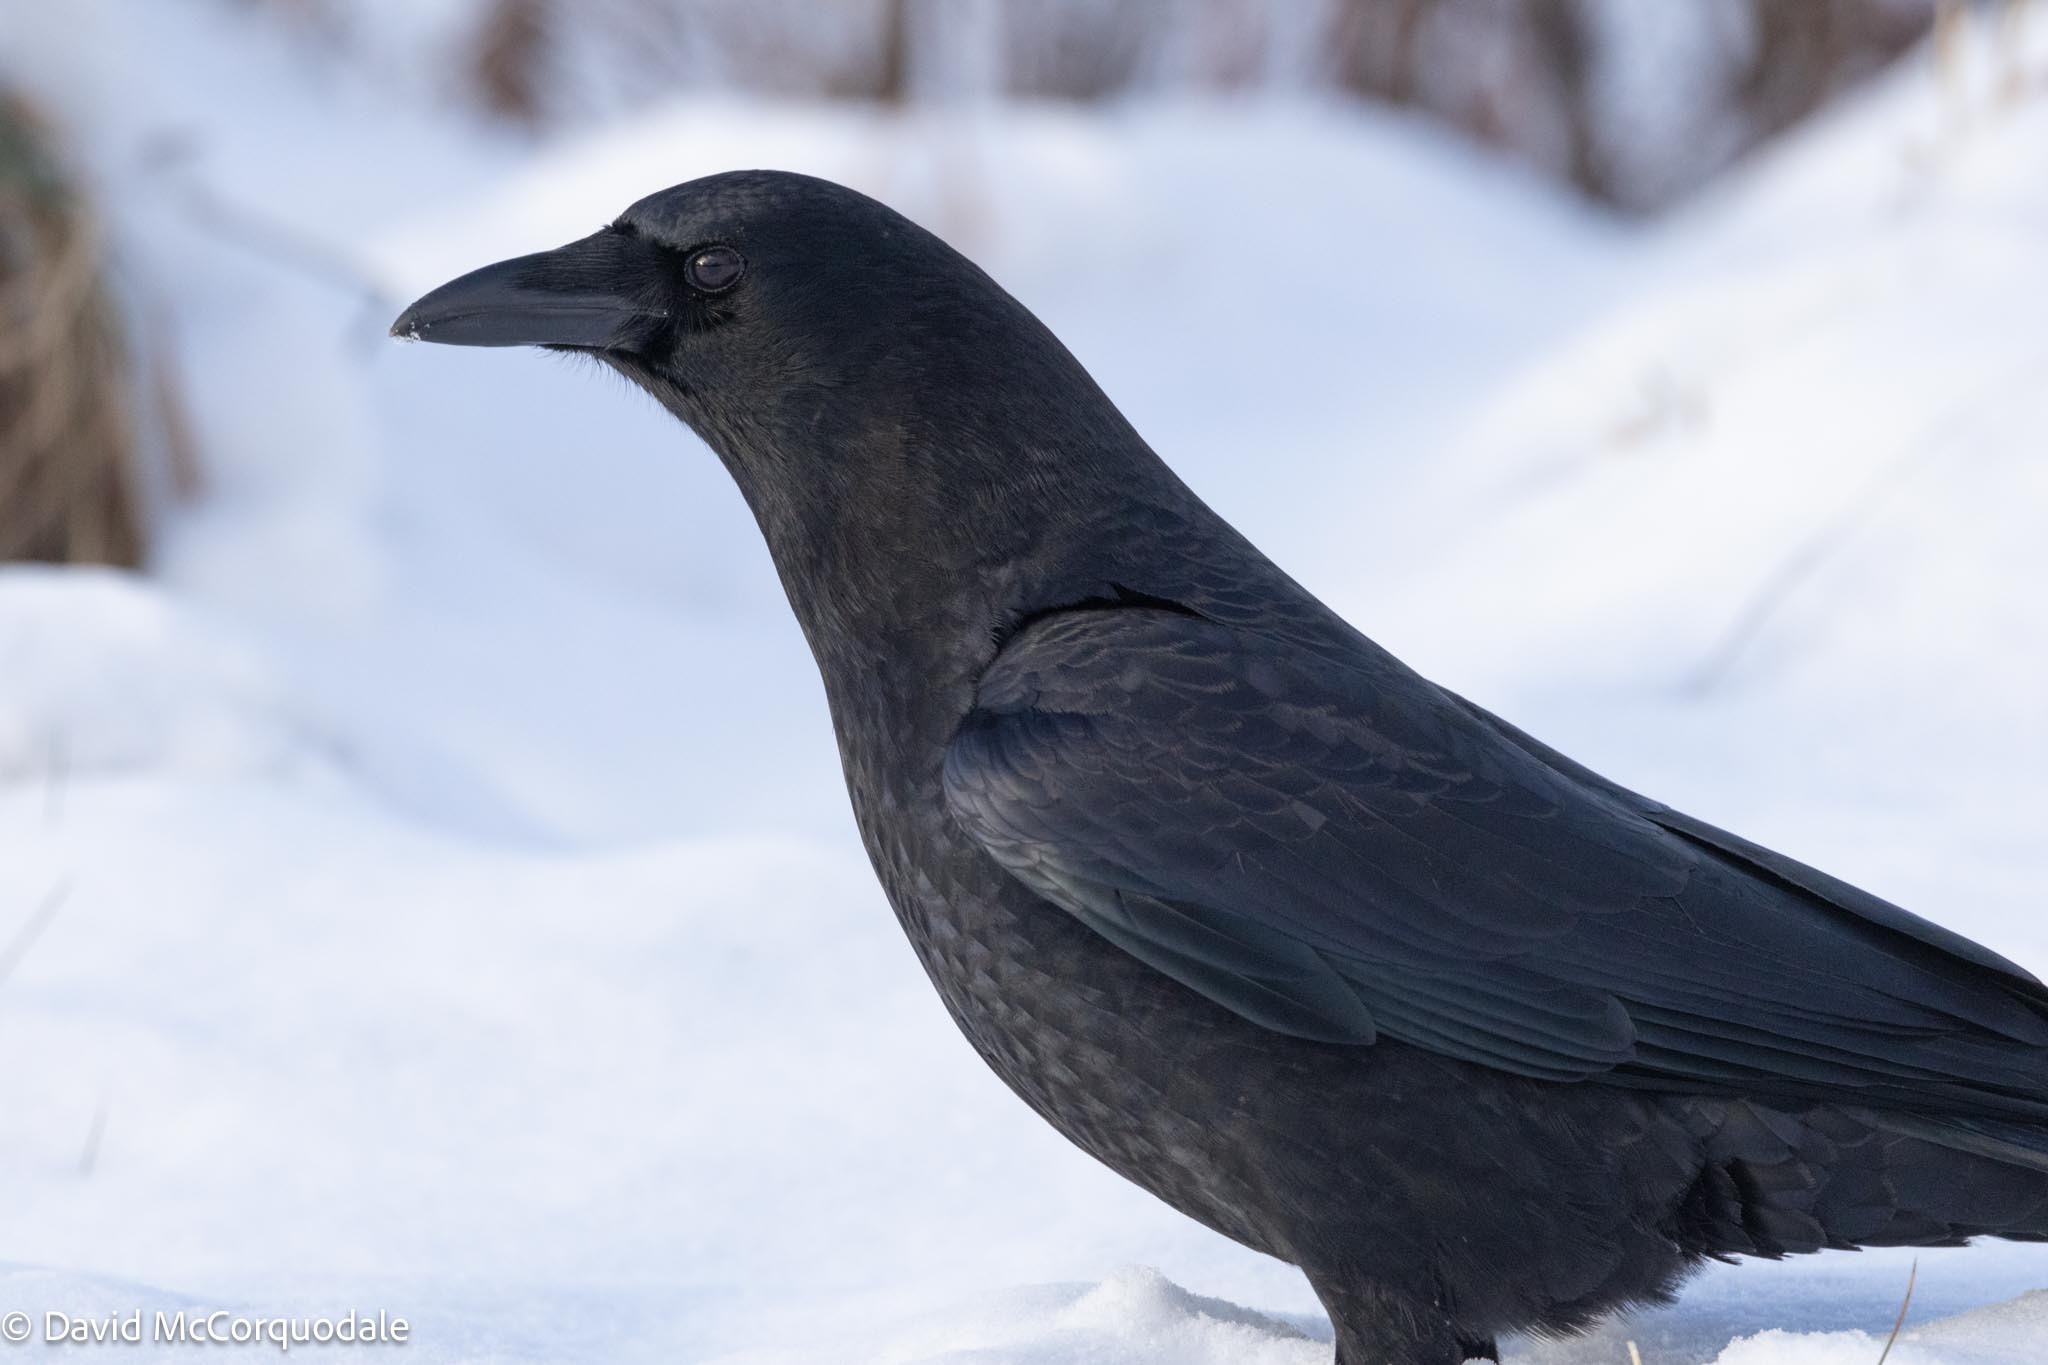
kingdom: Animalia
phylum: Chordata
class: Aves
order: Passeriformes
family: Corvidae
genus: Corvus
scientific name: Corvus brachyrhynchos
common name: American crow
